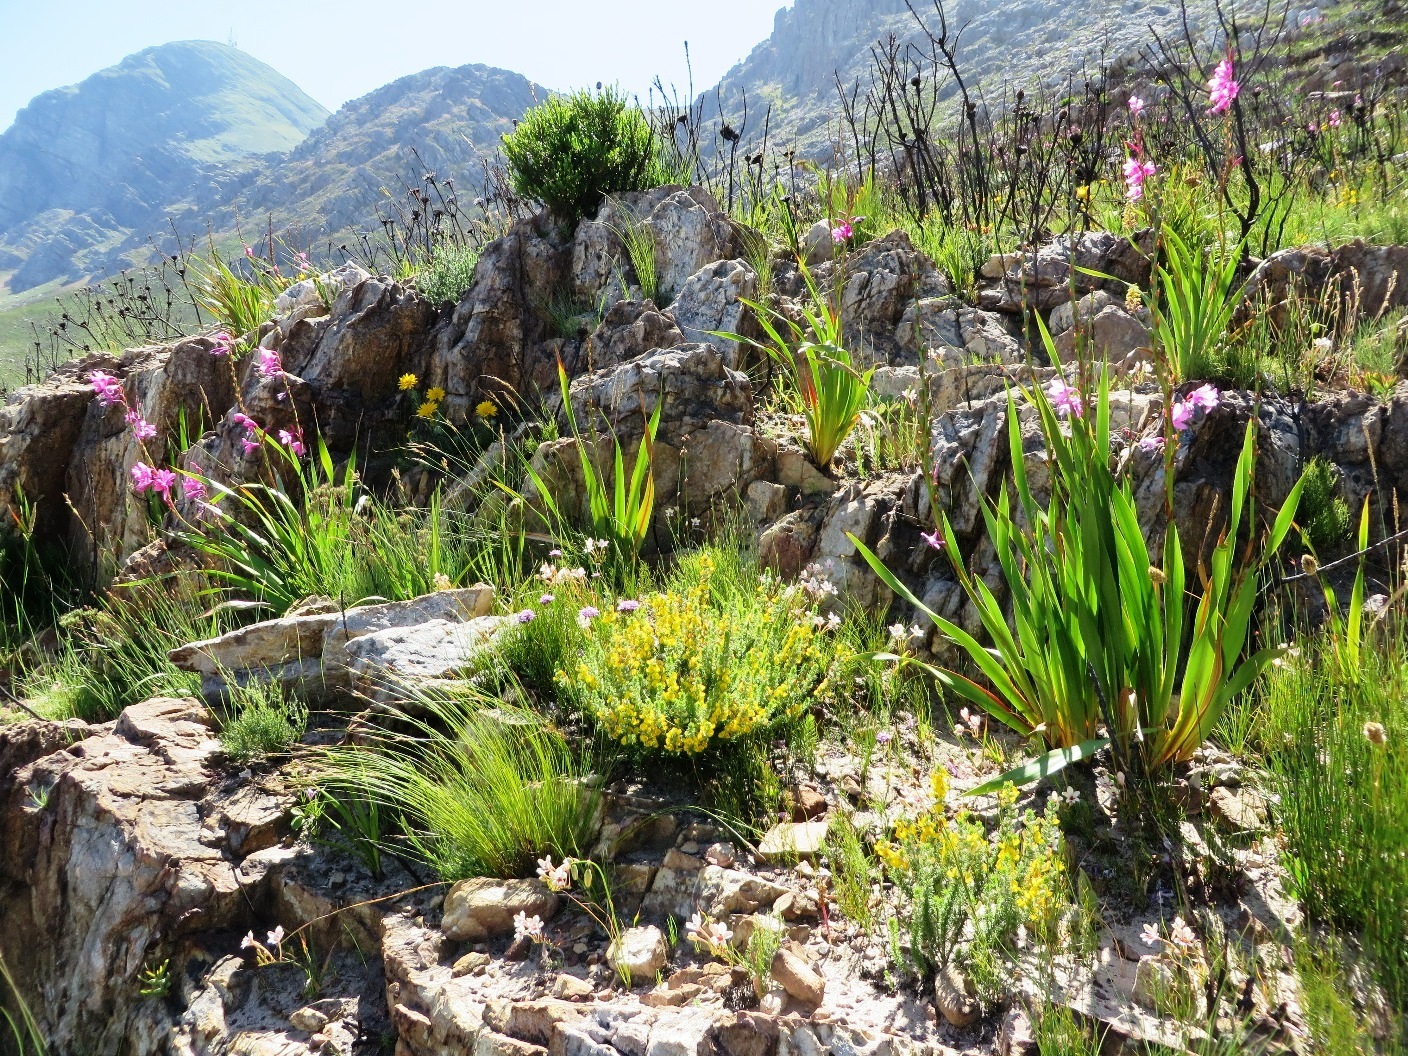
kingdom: Plantae
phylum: Tracheophyta
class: Magnoliopsida
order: Asterales
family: Asteraceae
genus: Heterolepis
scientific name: Heterolepis aliena
